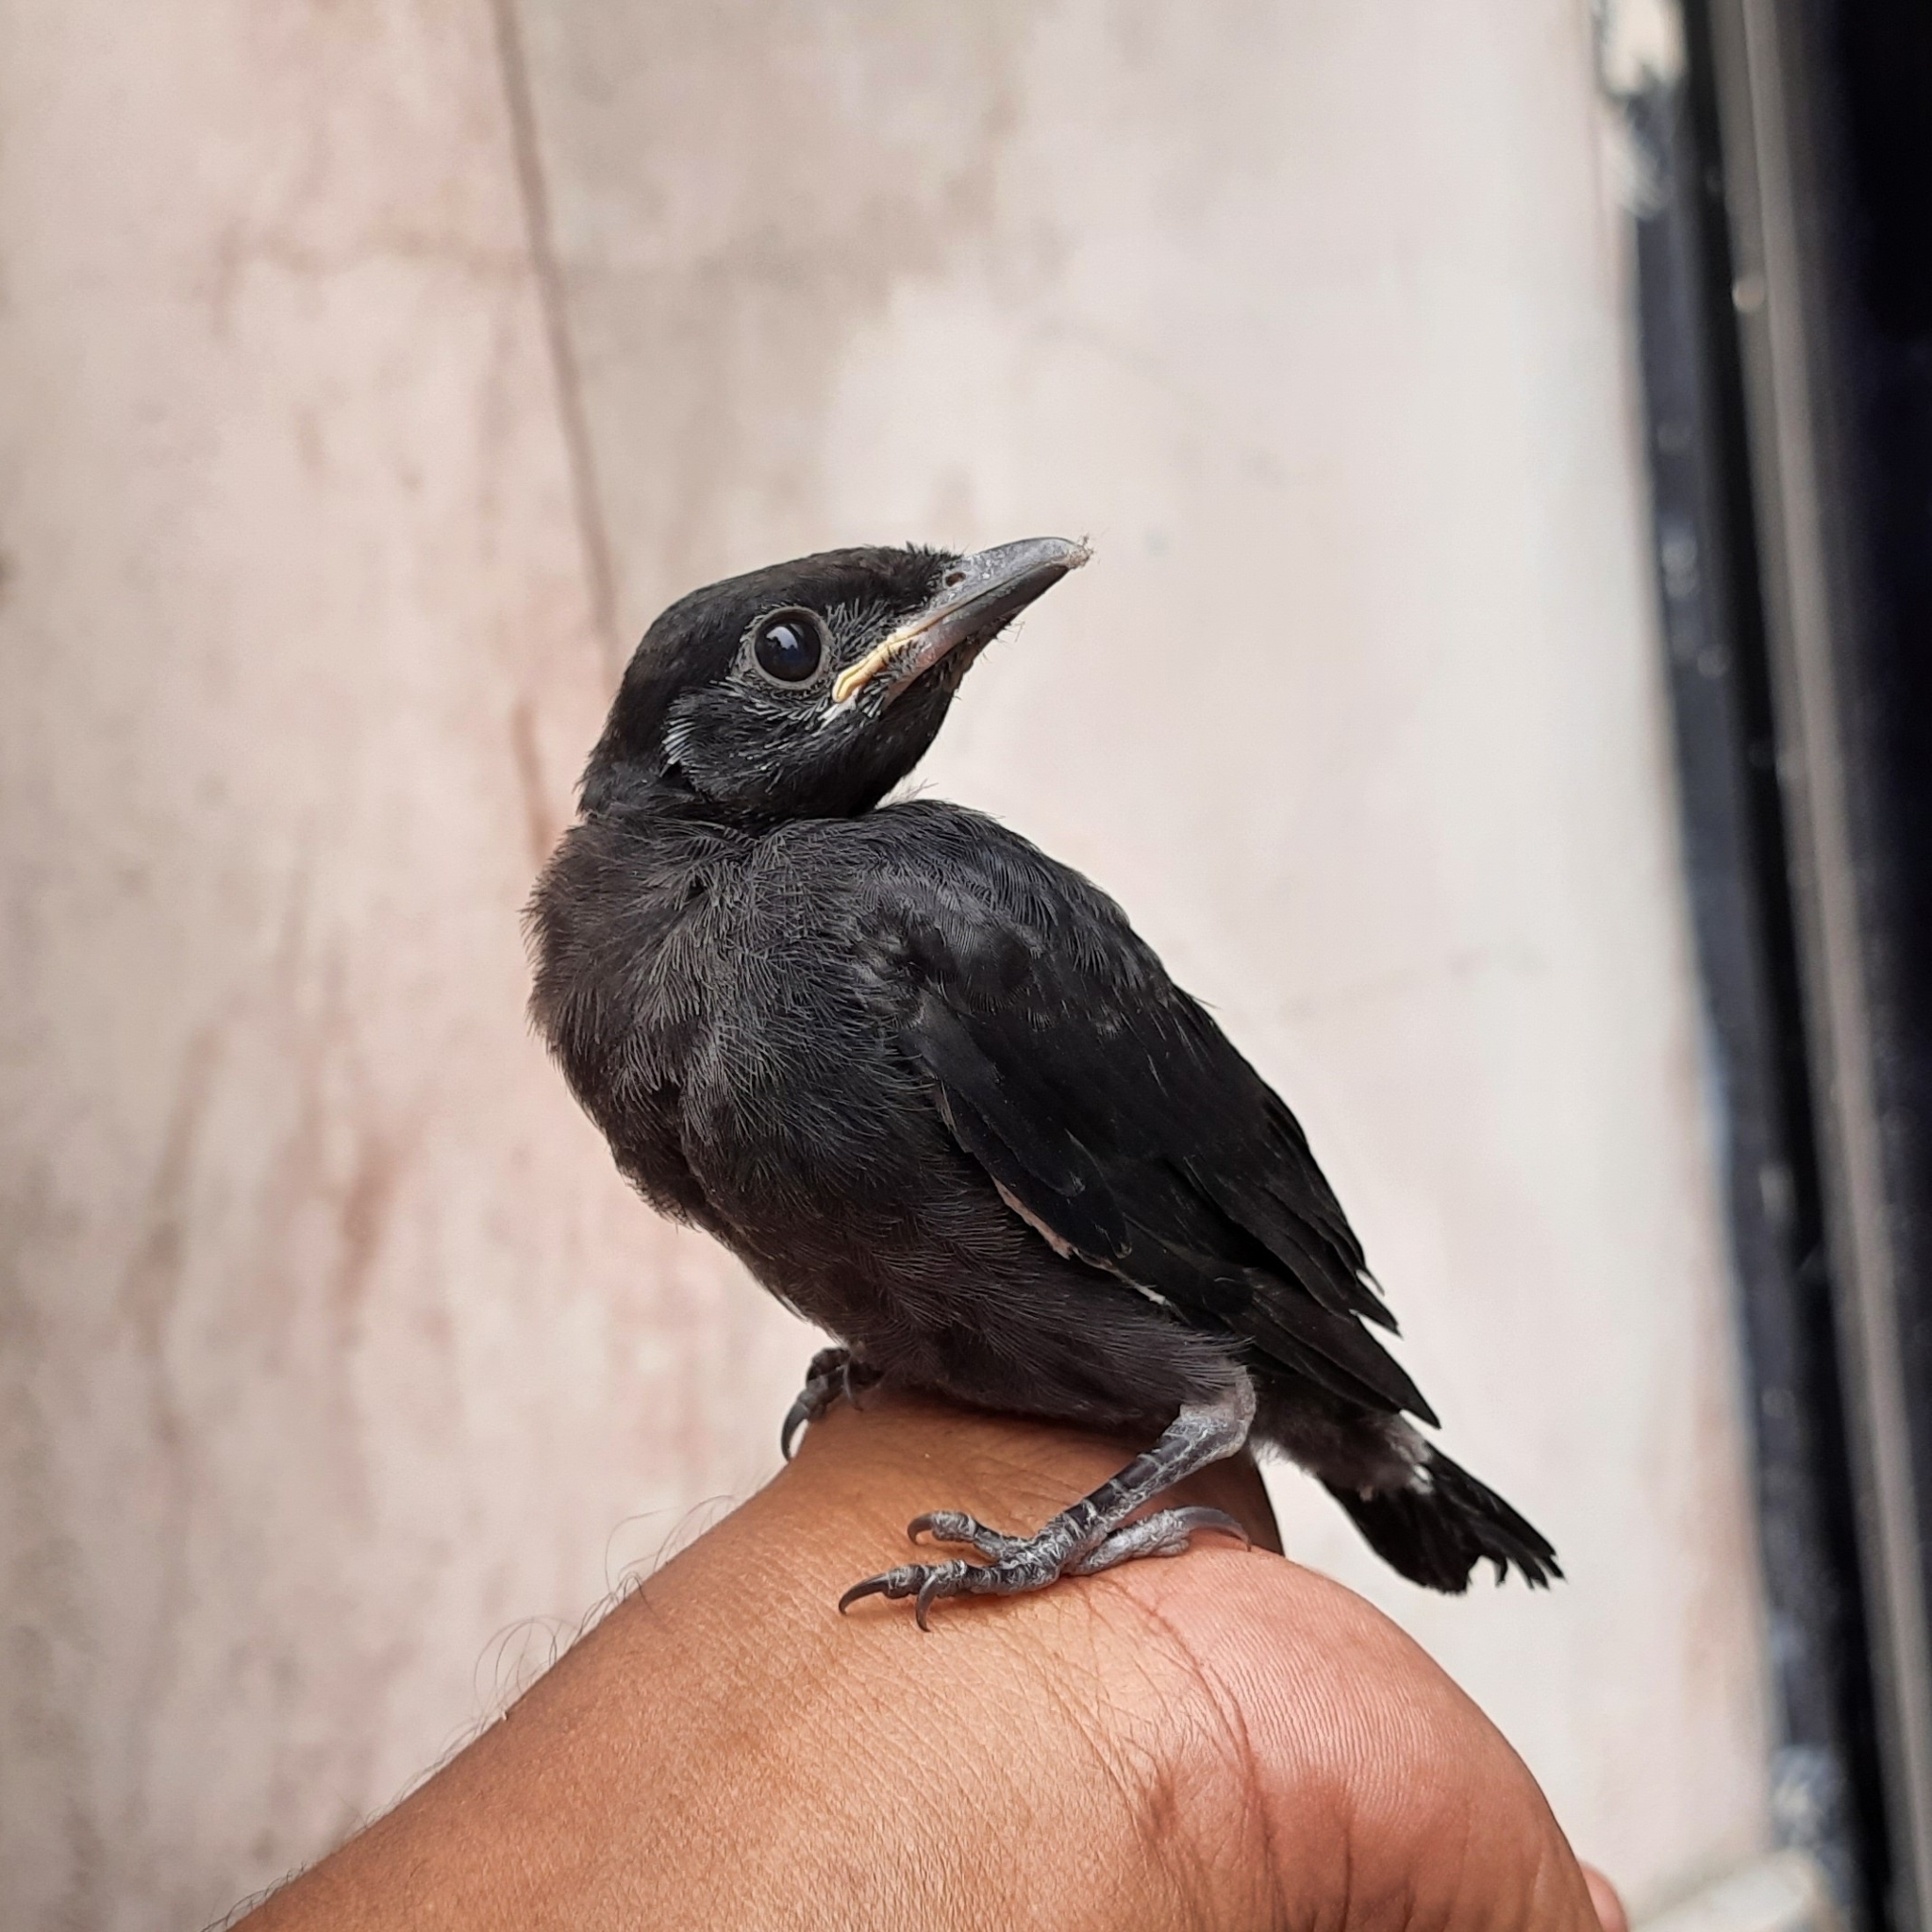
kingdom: Animalia
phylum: Chordata
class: Aves
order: Passeriformes
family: Dicruridae
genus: Dicrurus
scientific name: Dicrurus macrocercus
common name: Black drongo
